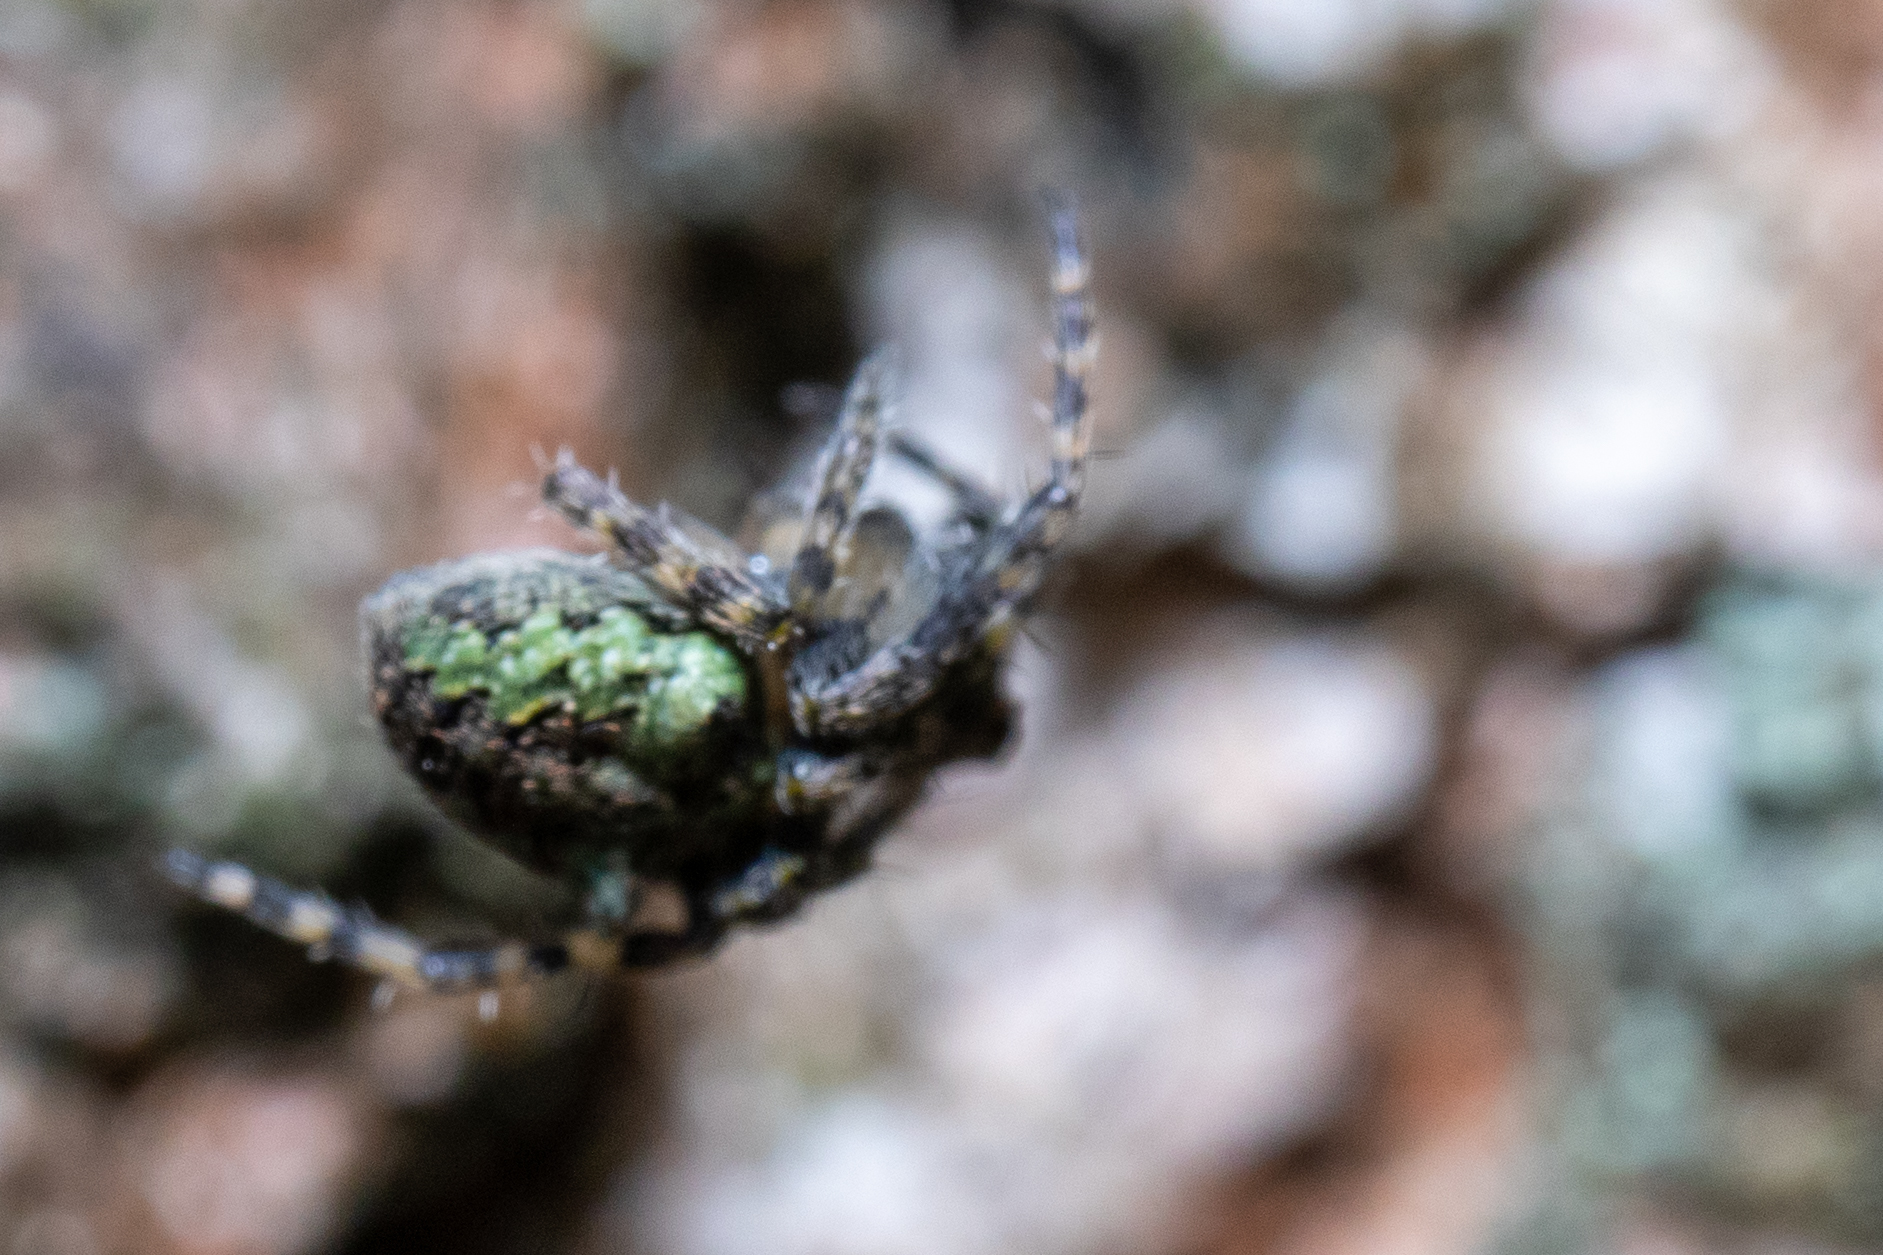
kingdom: Animalia
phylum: Arthropoda
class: Arachnida
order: Araneae
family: Araneidae
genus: Gibbaranea
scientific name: Gibbaranea gibbosa
